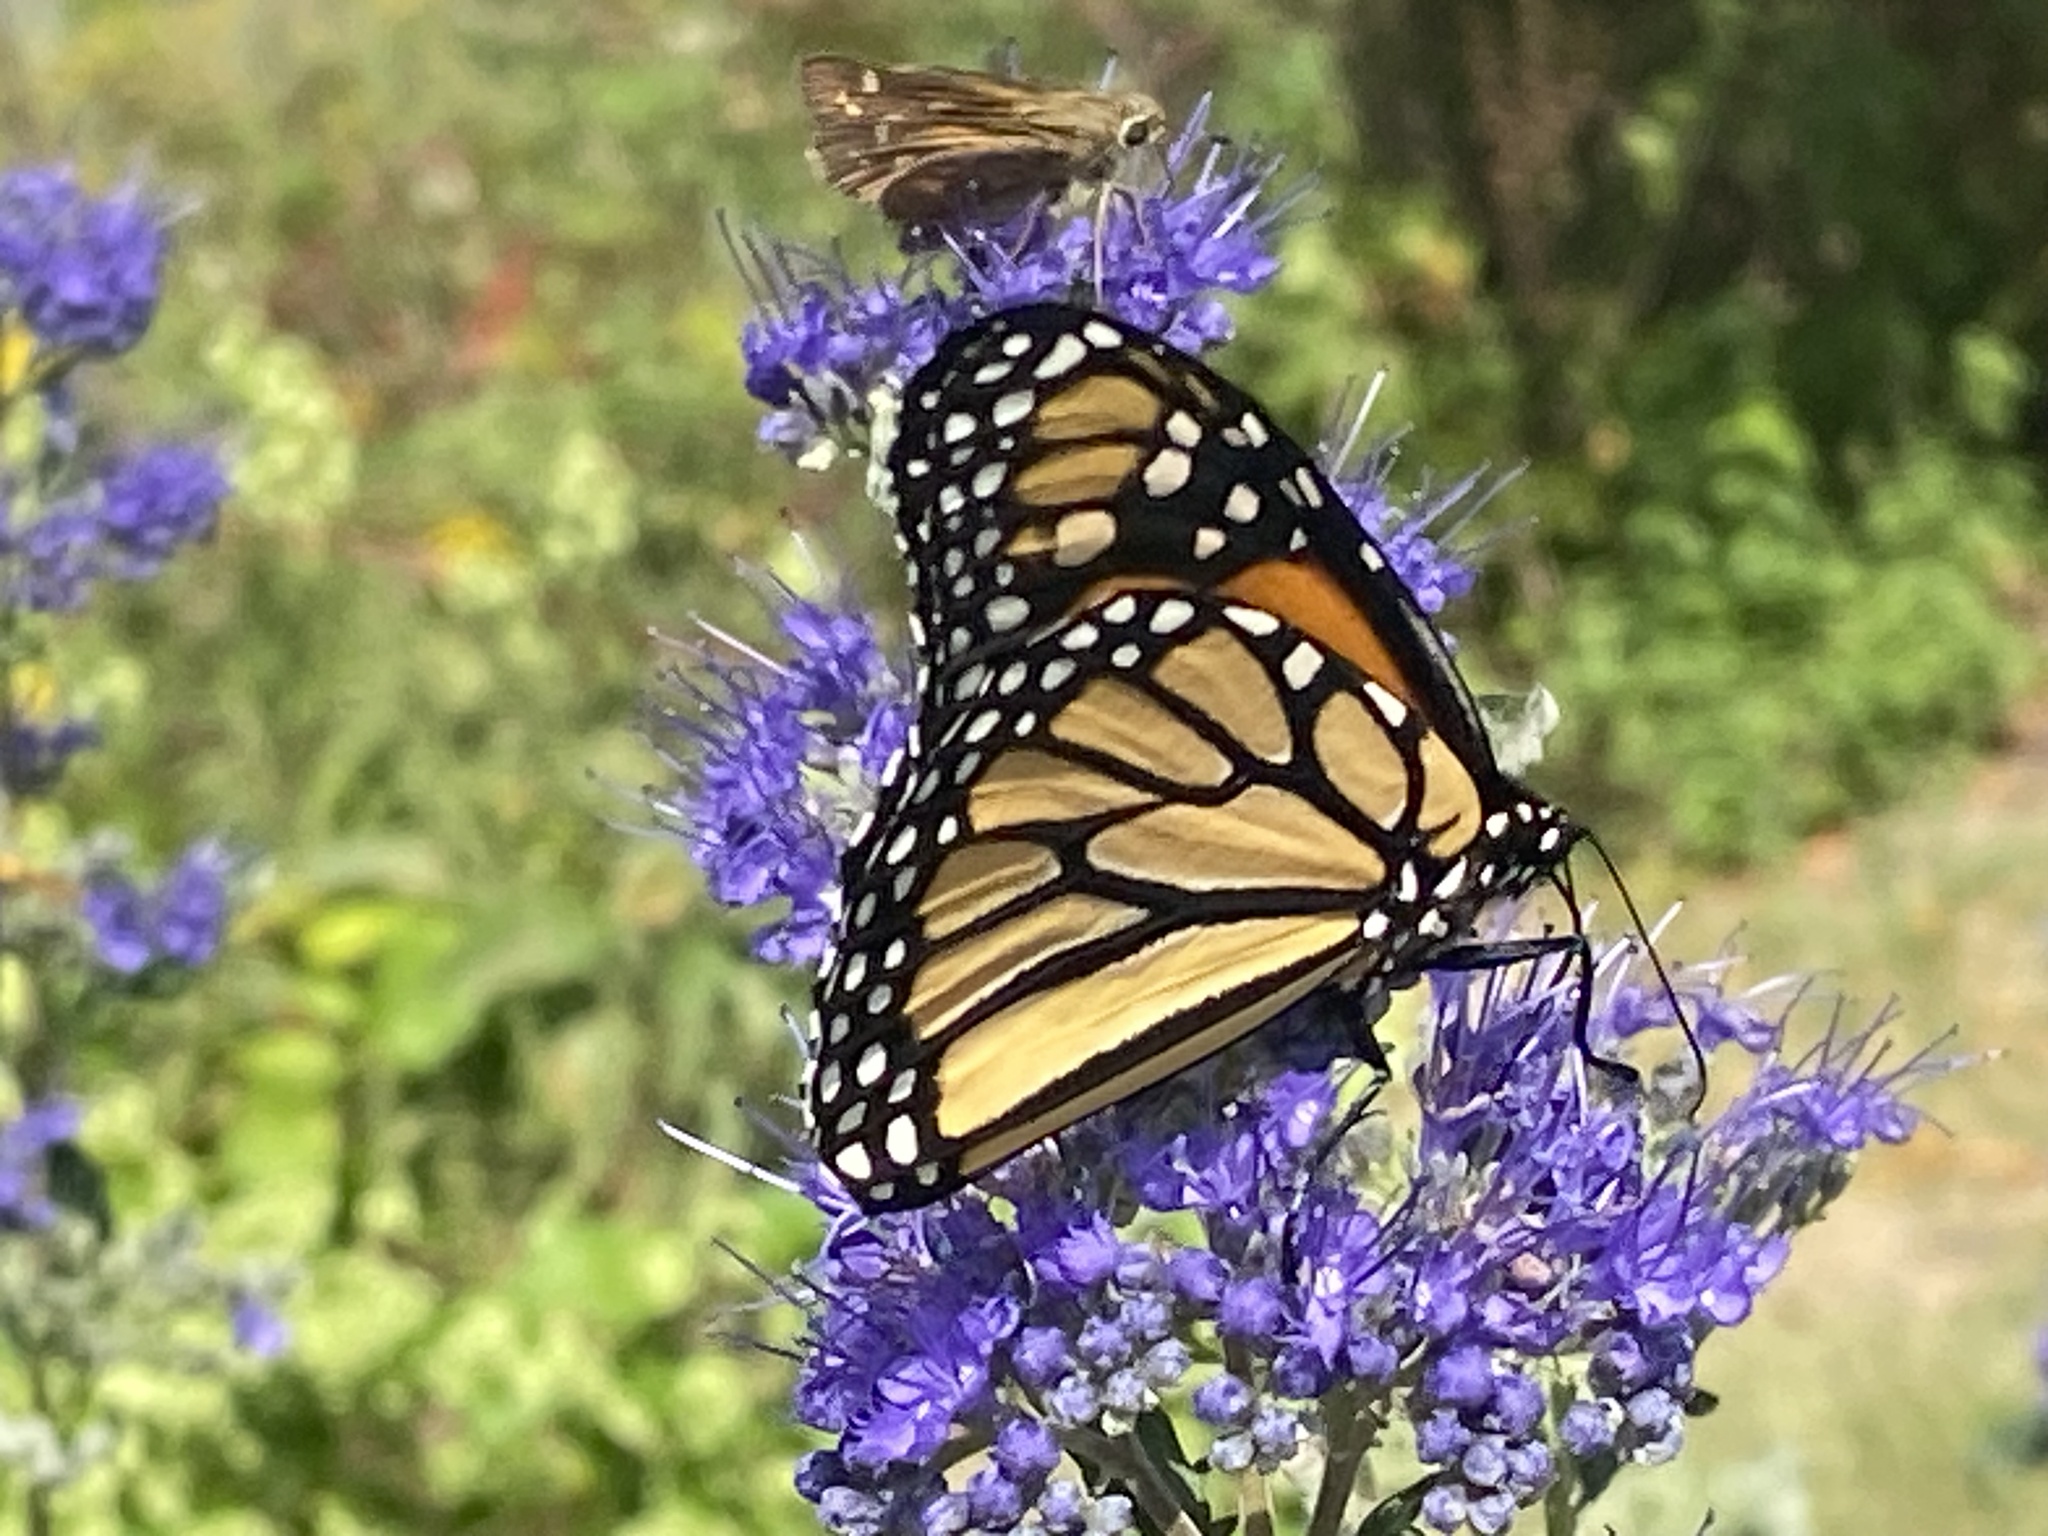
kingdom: Animalia
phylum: Arthropoda
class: Insecta
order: Lepidoptera
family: Nymphalidae
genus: Danaus
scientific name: Danaus plexippus
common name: Monarch
